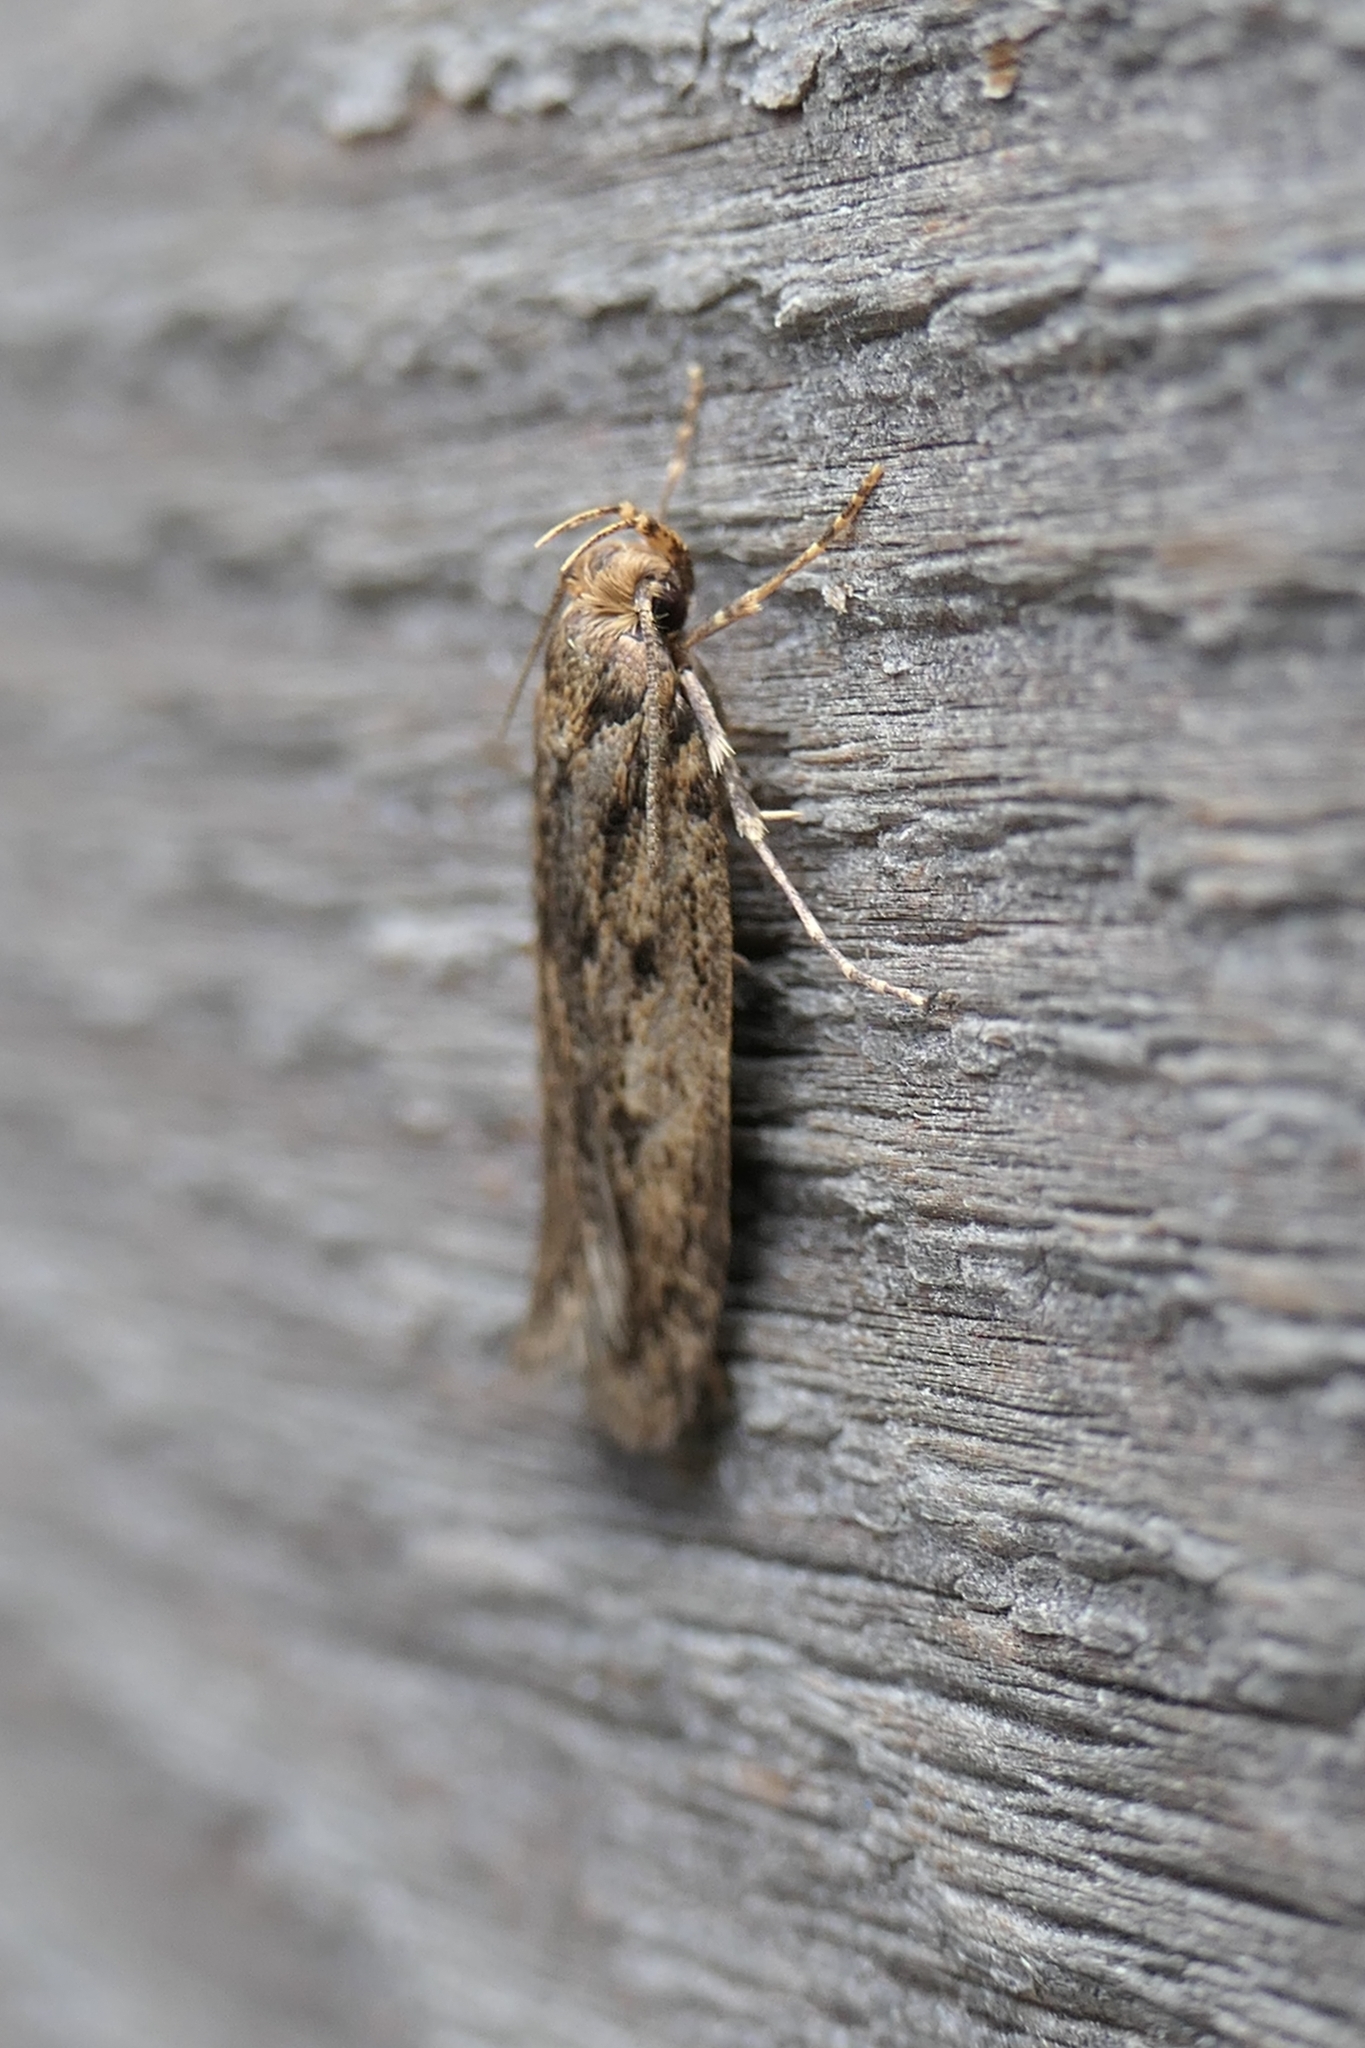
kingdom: Animalia
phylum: Arthropoda
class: Insecta
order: Lepidoptera
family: Oecophoridae
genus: Hofmannophila
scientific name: Hofmannophila pseudospretella
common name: Brown house moth
